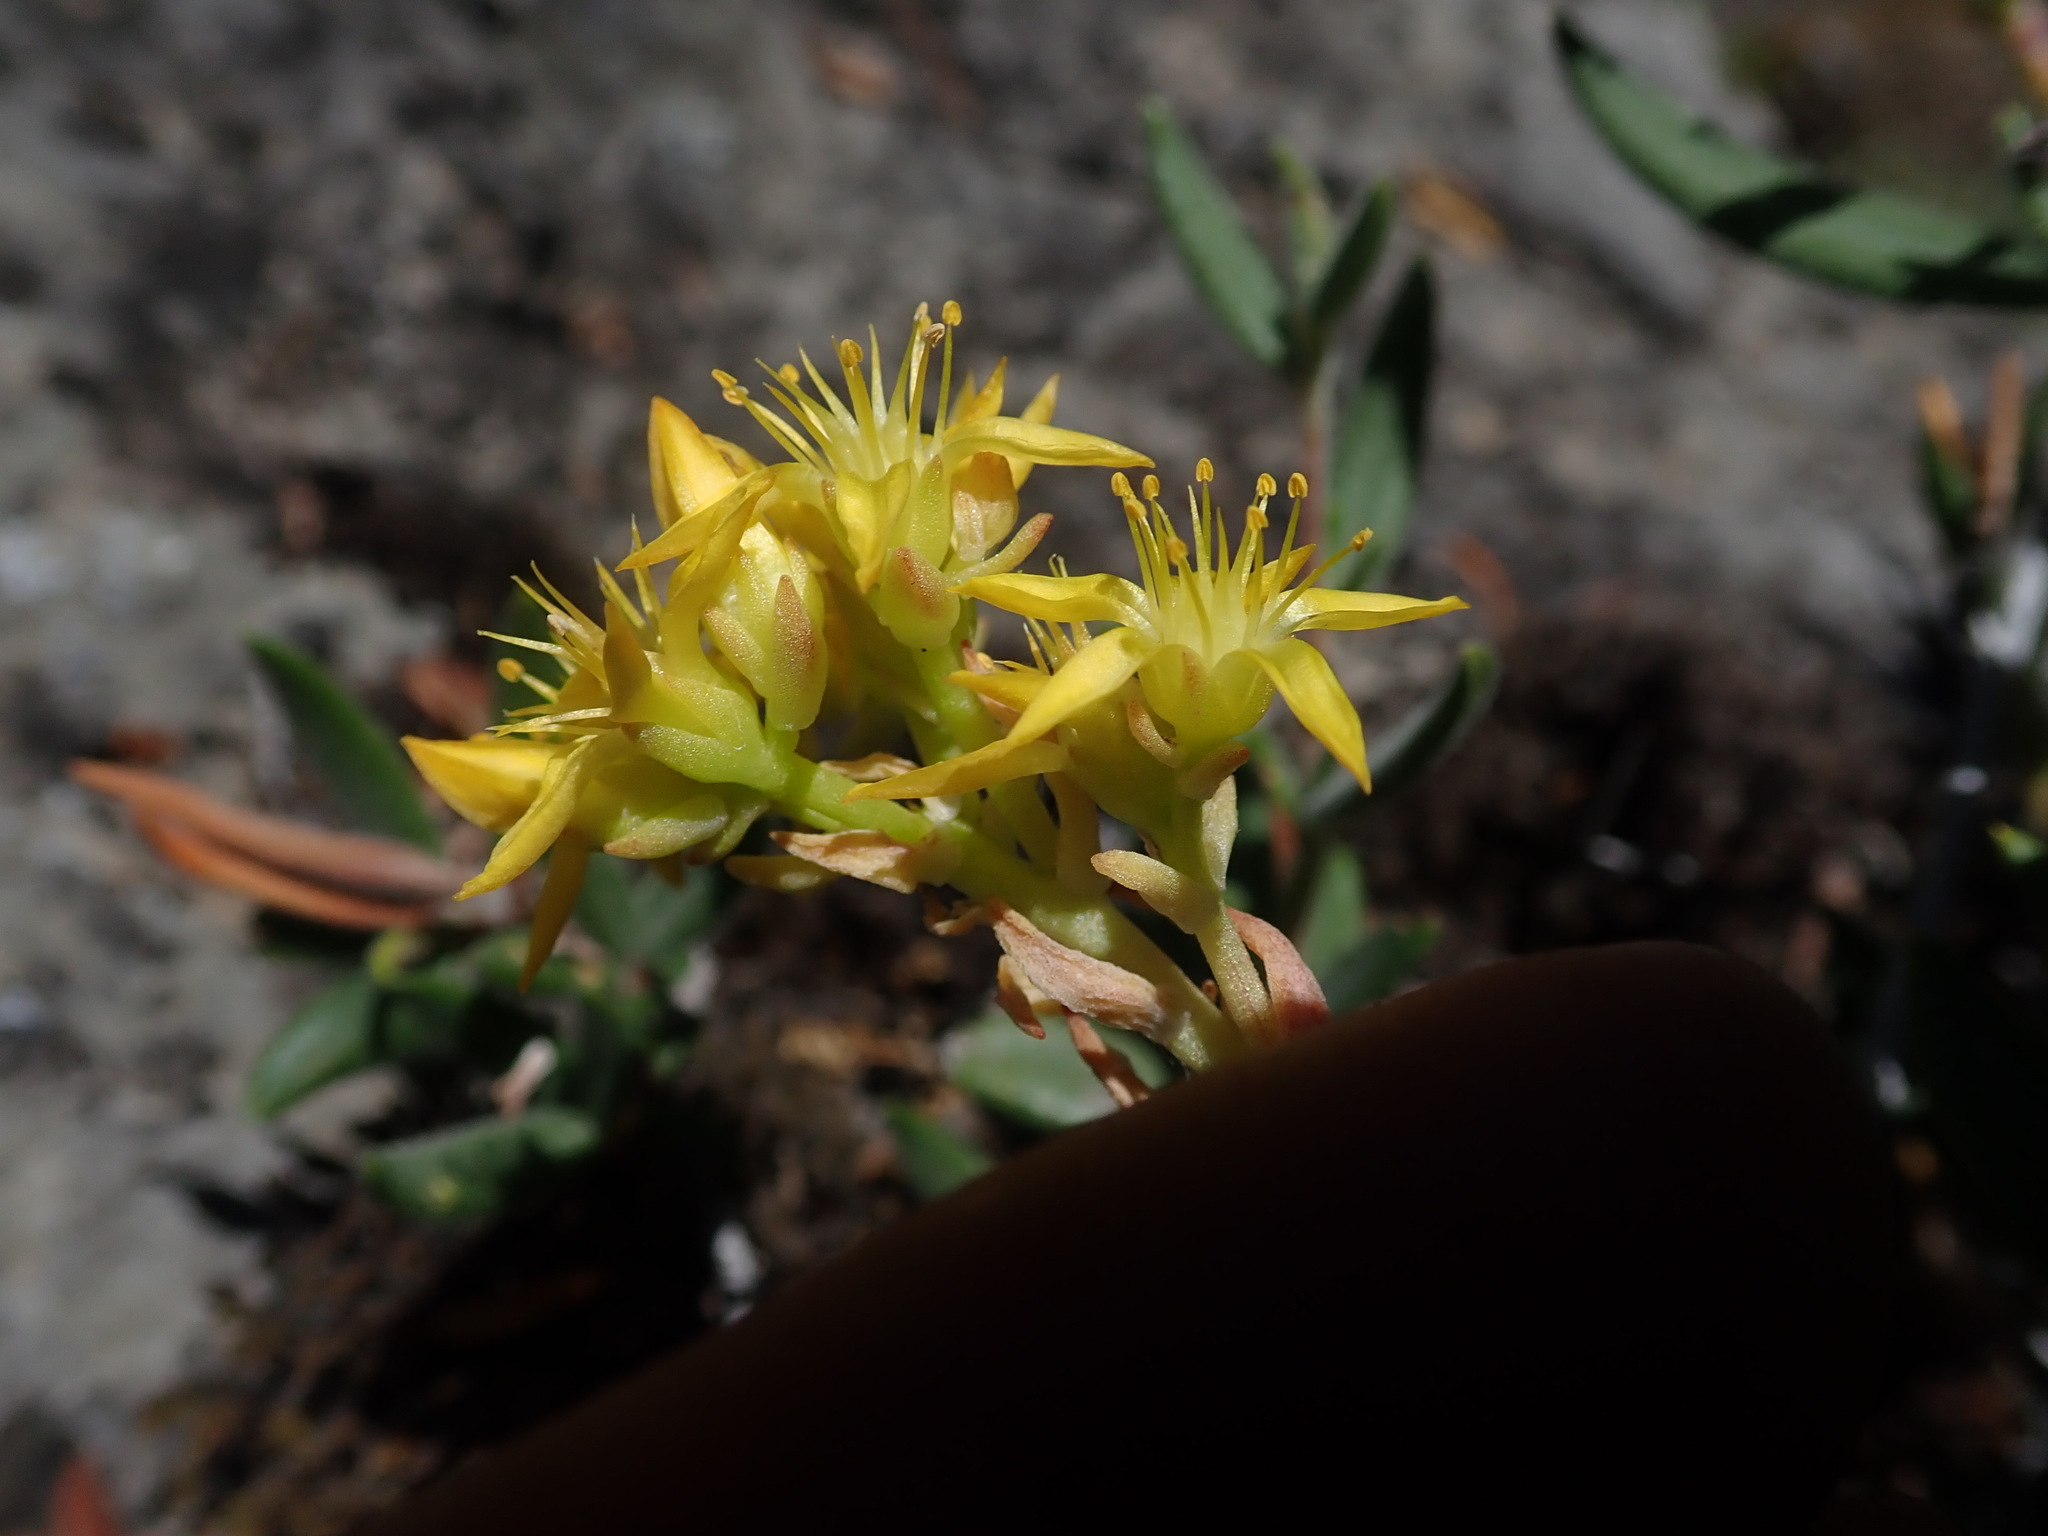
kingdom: Plantae
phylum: Tracheophyta
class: Magnoliopsida
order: Saxifragales
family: Crassulaceae
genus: Sedum
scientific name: Sedum lanceolatum
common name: Common stonecrop
